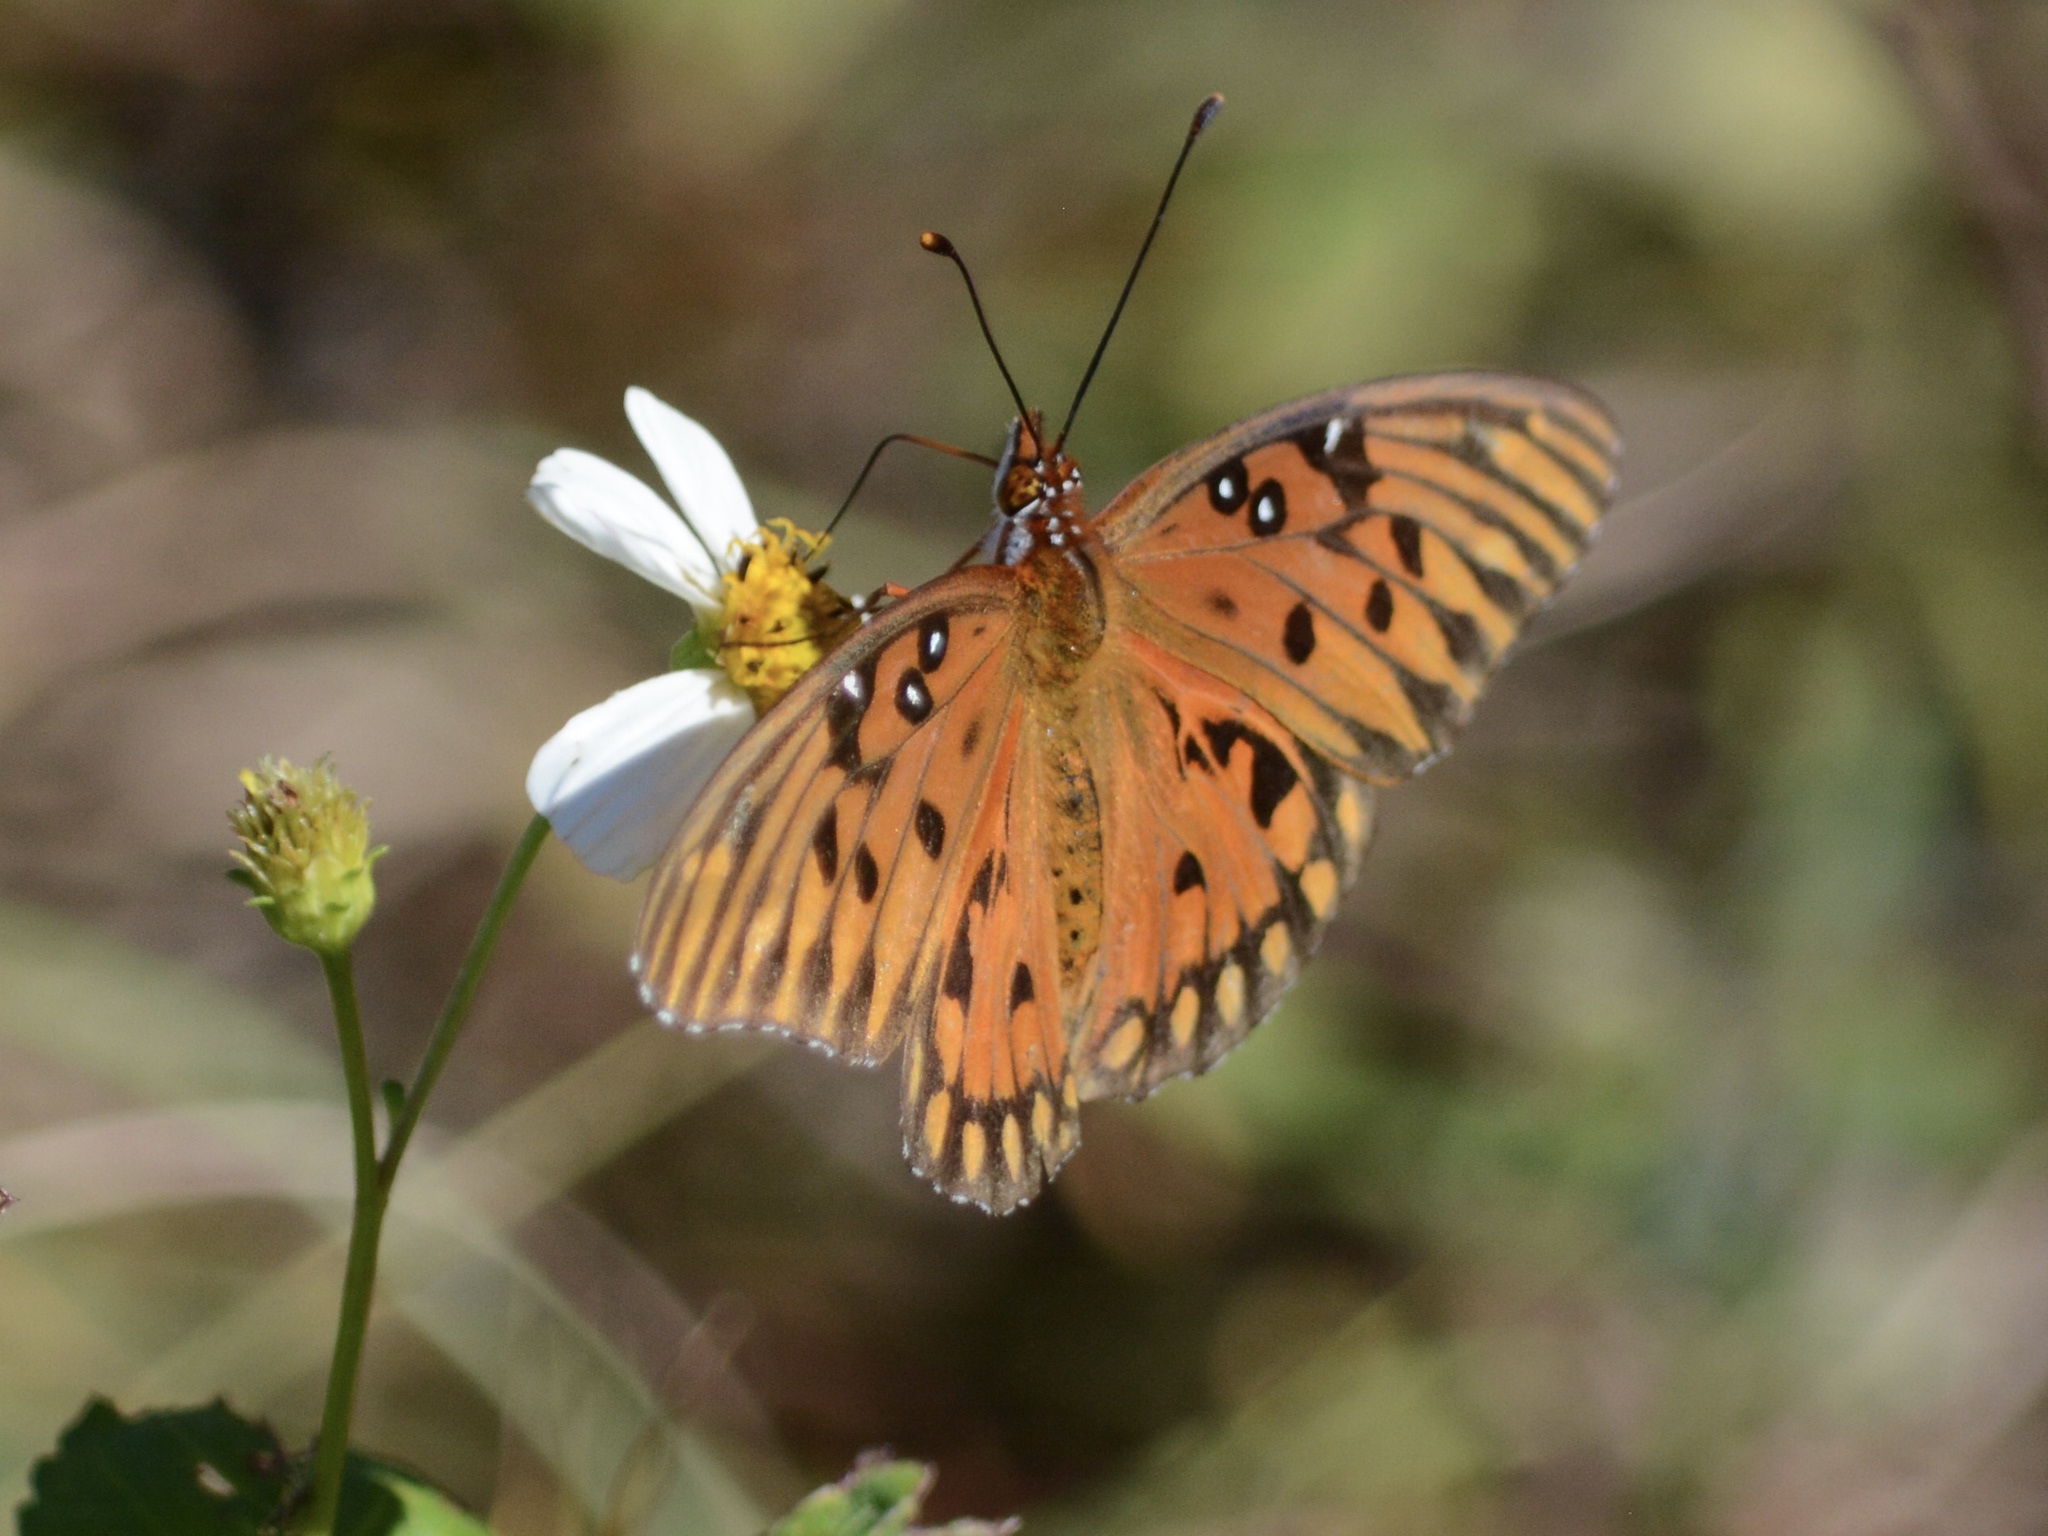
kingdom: Animalia
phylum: Arthropoda
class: Insecta
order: Lepidoptera
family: Nymphalidae
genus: Dione
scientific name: Dione vanillae
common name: Gulf fritillary
